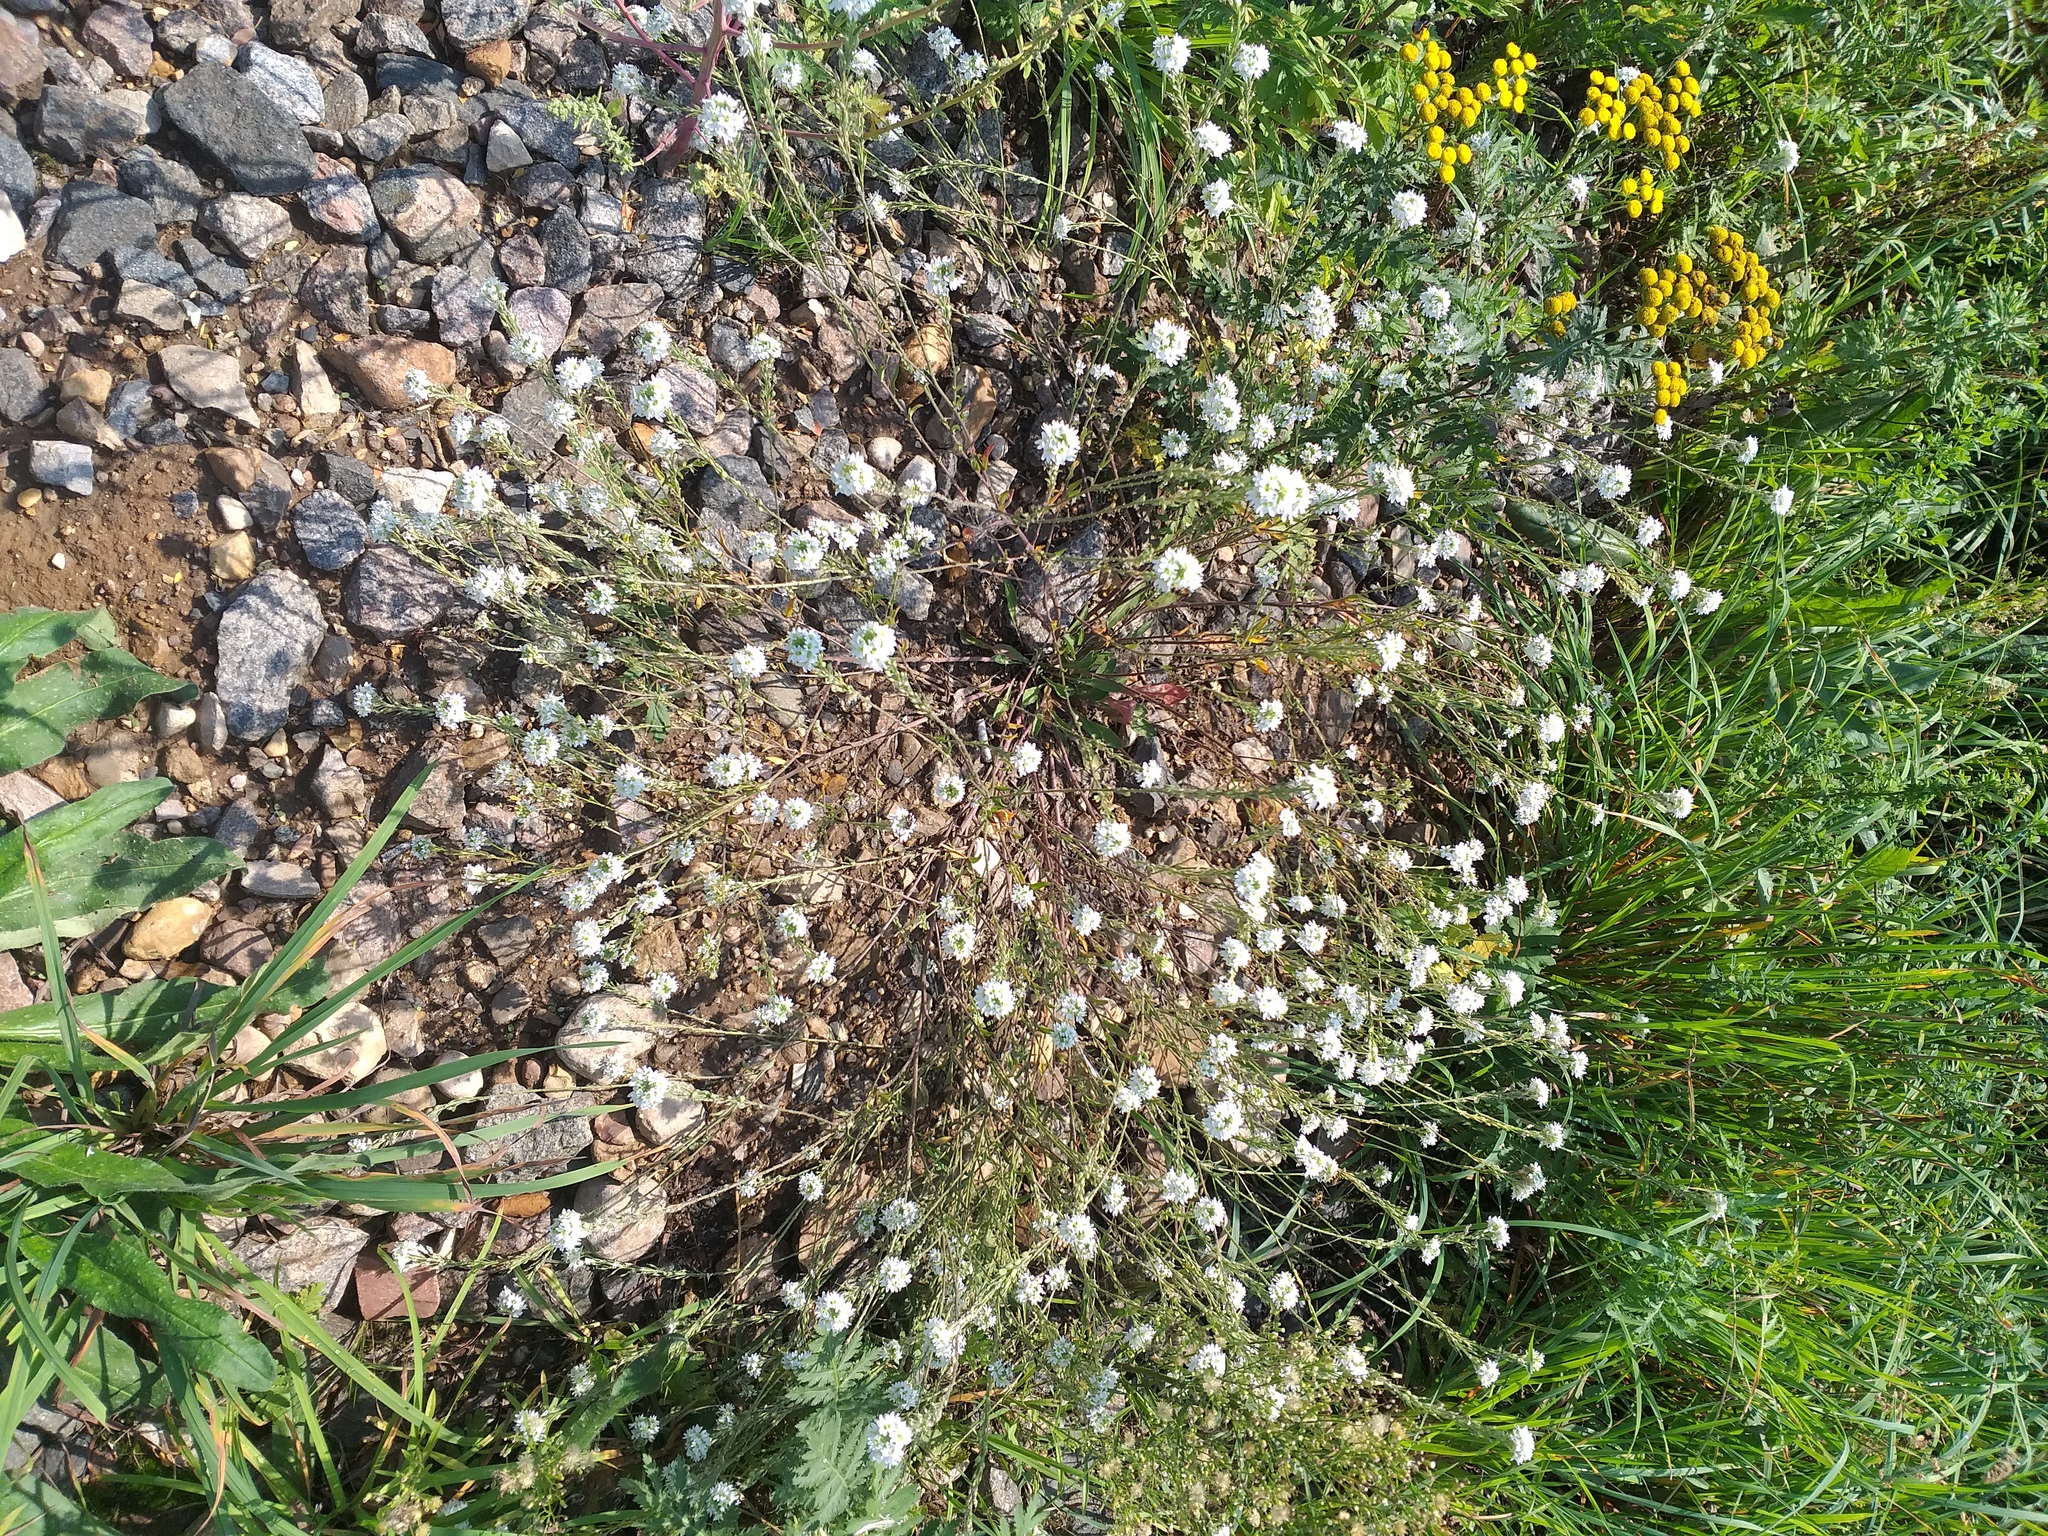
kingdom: Plantae
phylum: Tracheophyta
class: Magnoliopsida
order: Brassicales
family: Brassicaceae
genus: Berteroa
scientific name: Berteroa incana
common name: Hoary alison
